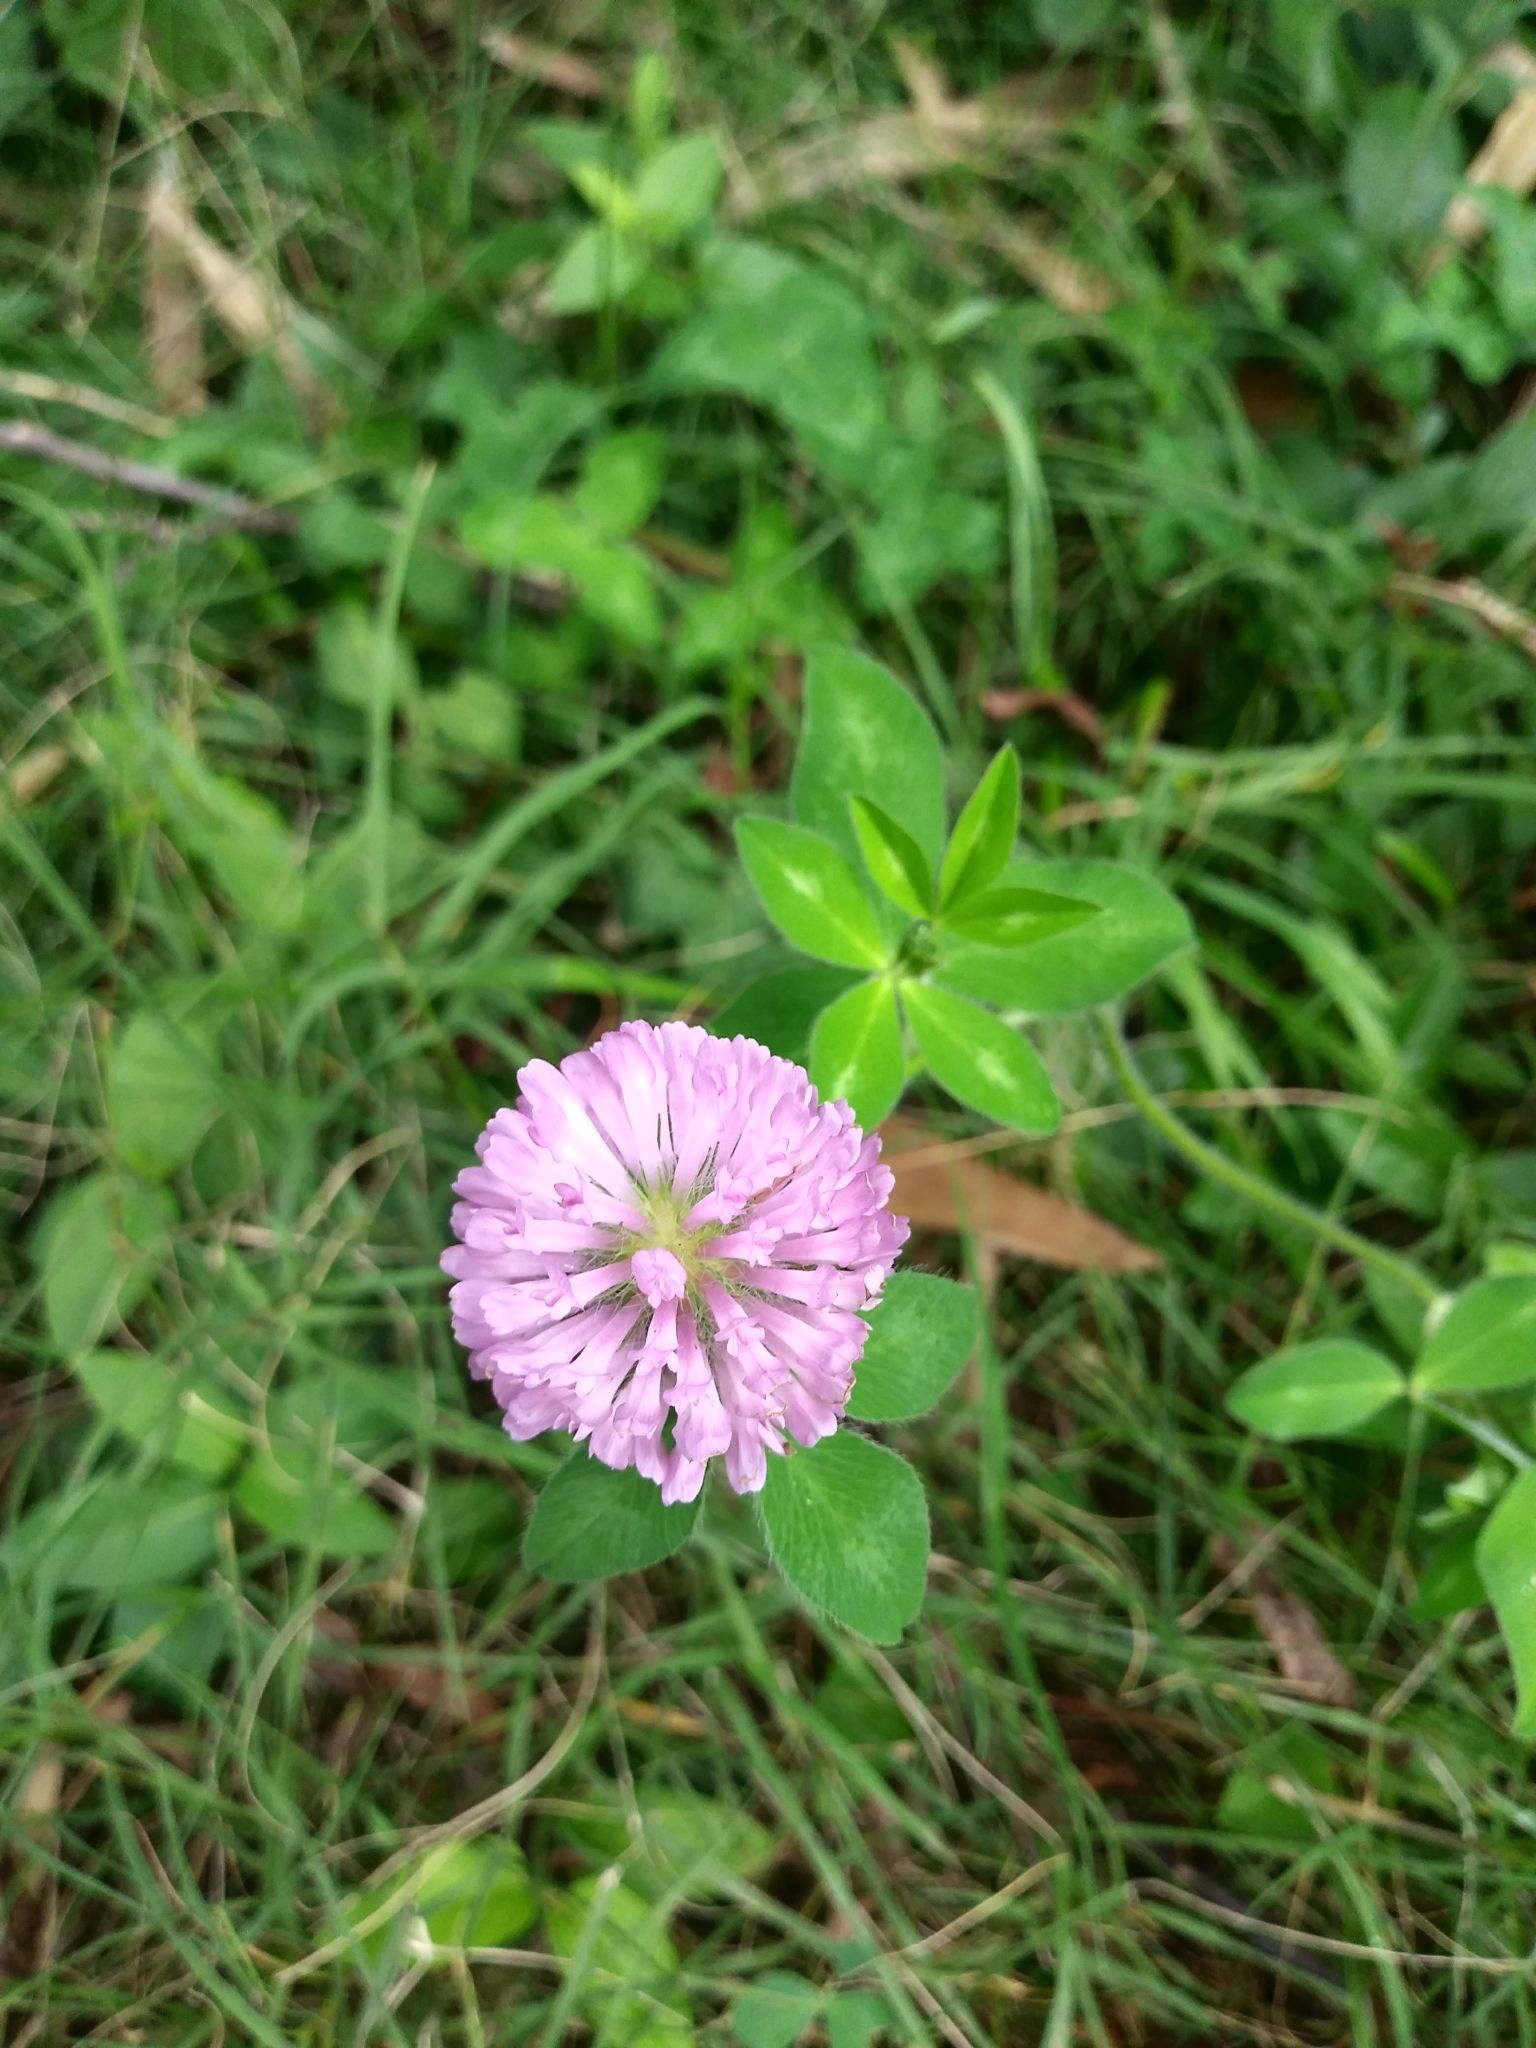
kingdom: Plantae
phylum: Tracheophyta
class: Magnoliopsida
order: Fabales
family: Fabaceae
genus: Trifolium
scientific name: Trifolium pratense
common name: Red clover
